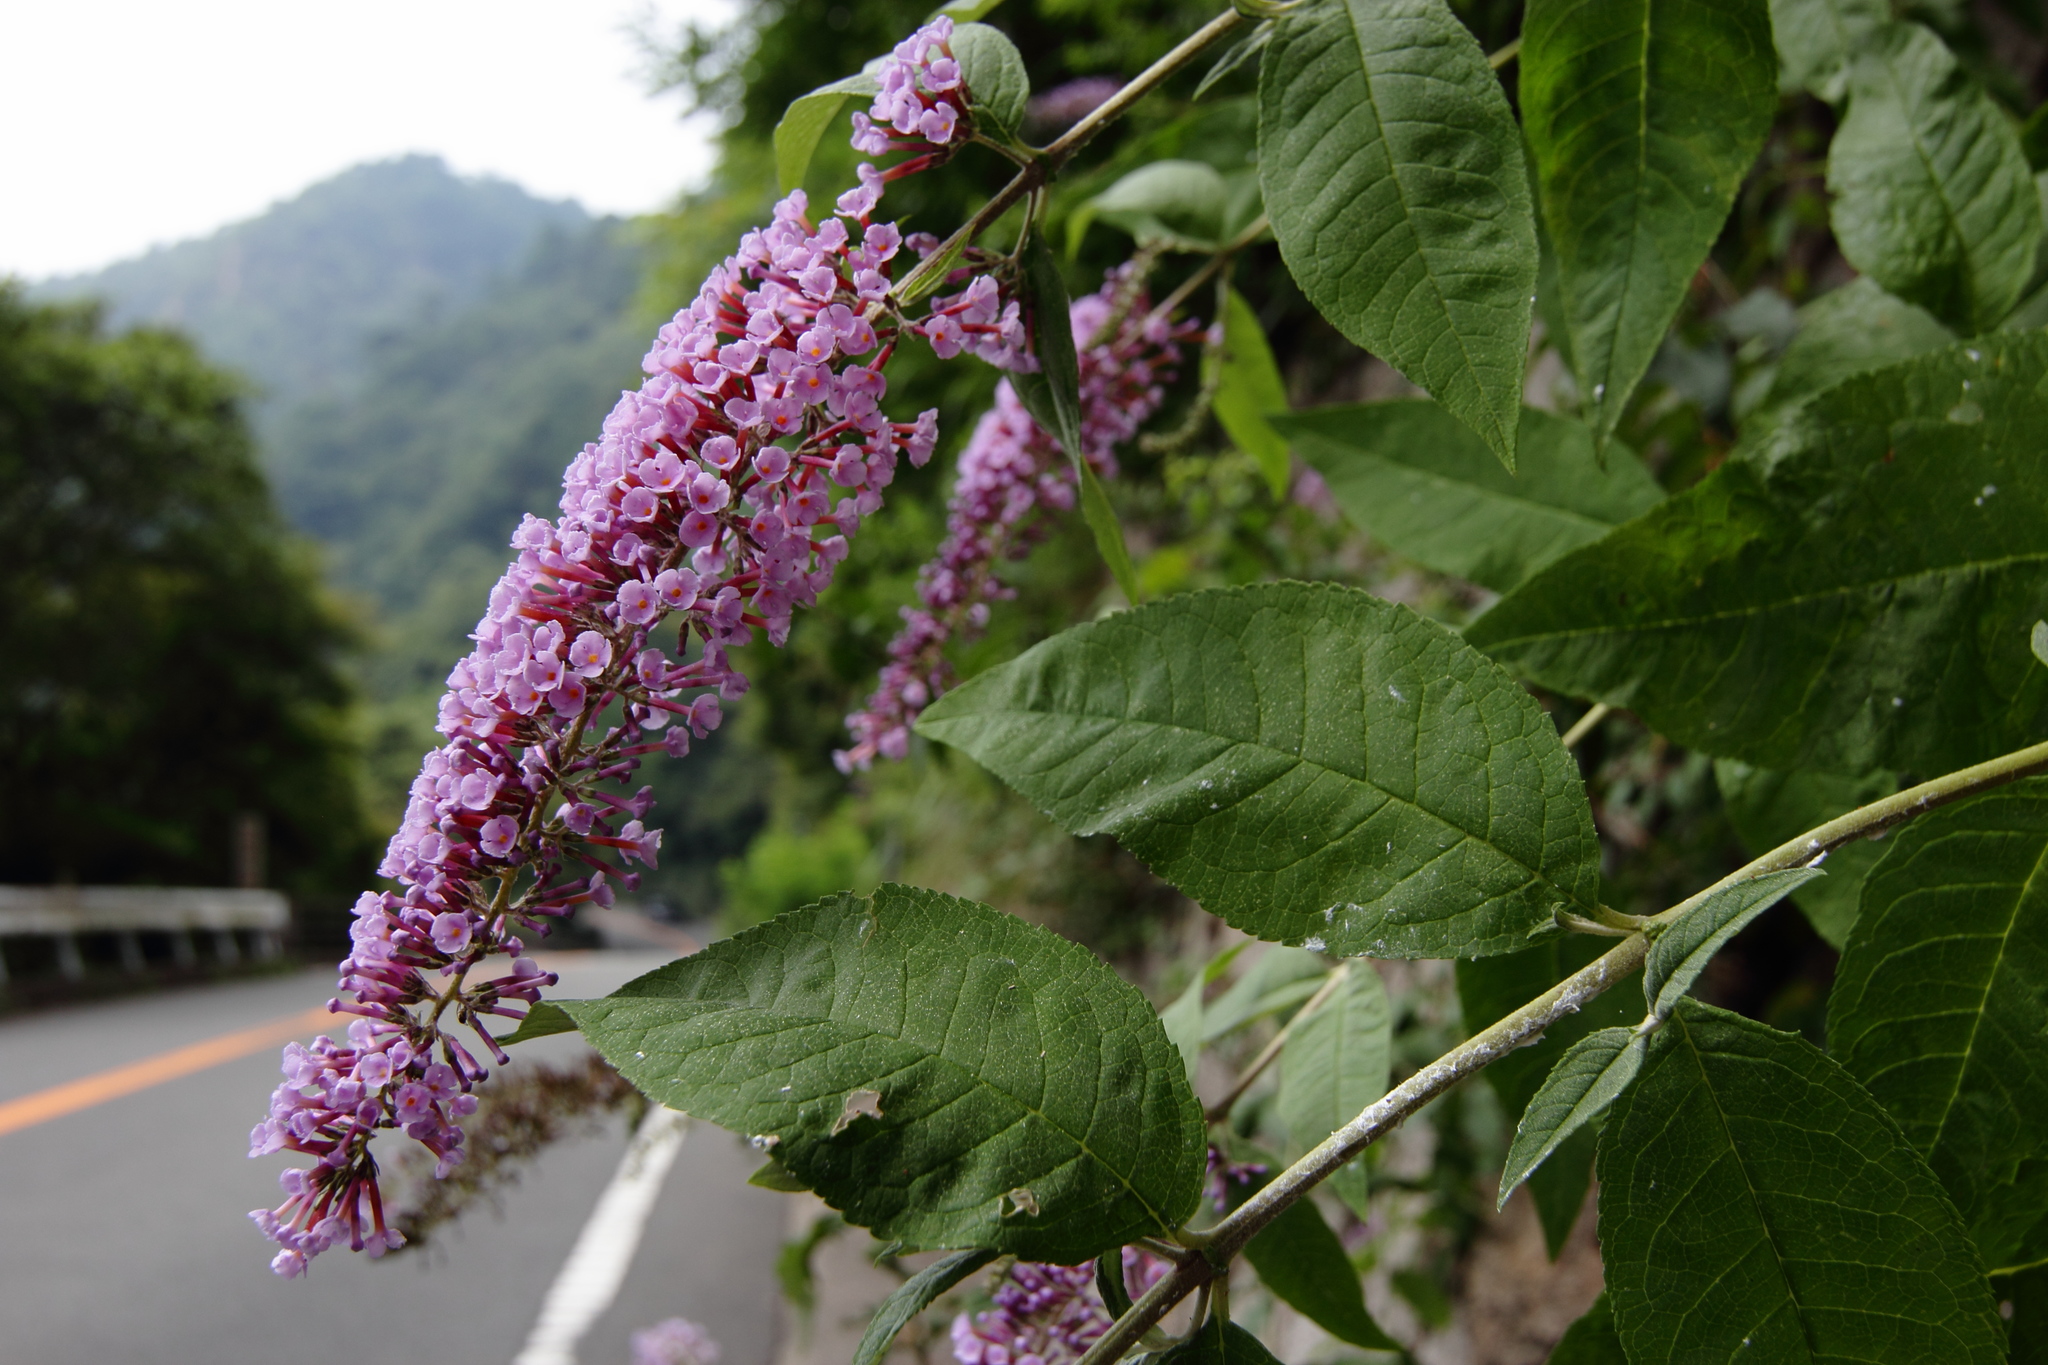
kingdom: Plantae
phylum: Tracheophyta
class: Magnoliopsida
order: Lamiales
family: Scrophulariaceae
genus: Buddleja
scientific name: Buddleja davidii
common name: Butterfly-bush
